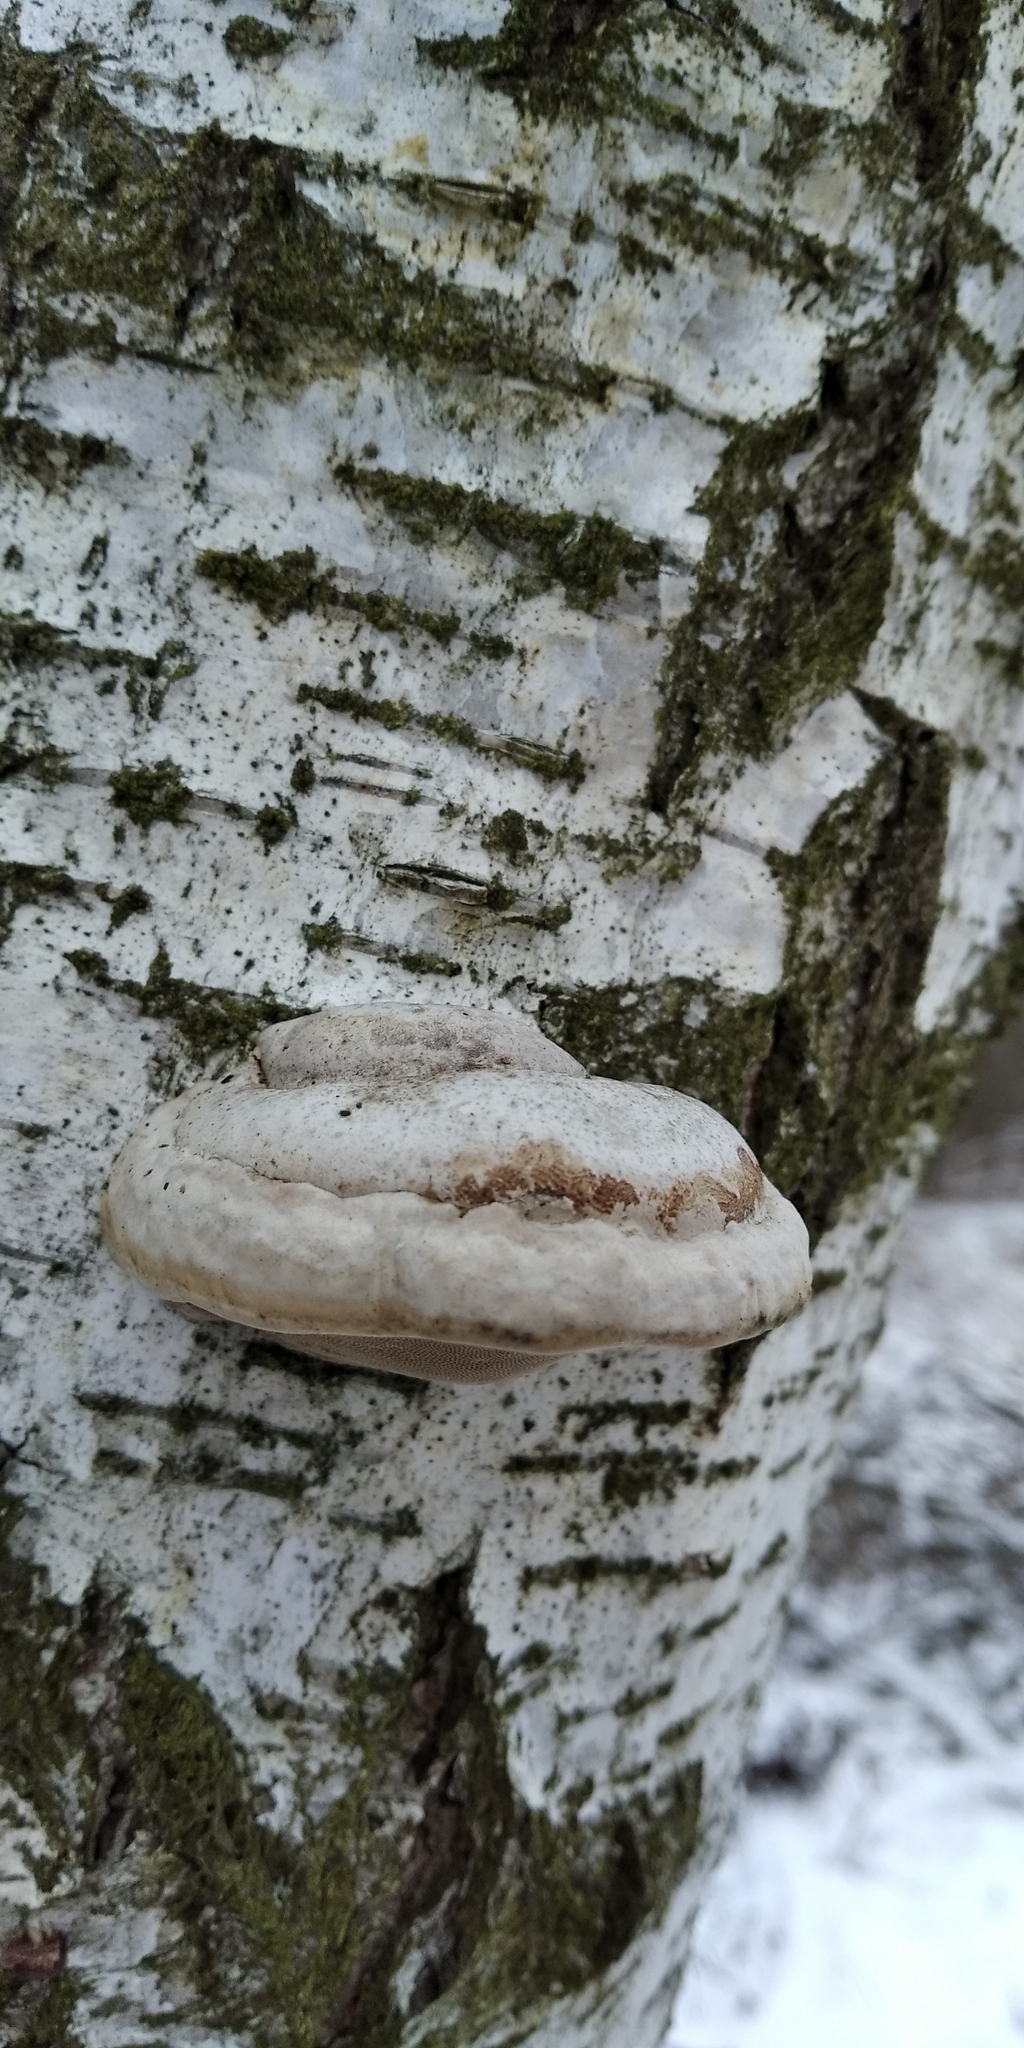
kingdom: Fungi
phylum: Basidiomycota
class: Agaricomycetes
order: Polyporales
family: Polyporaceae
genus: Fomes
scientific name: Fomes fomentarius
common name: Hoof fungus
